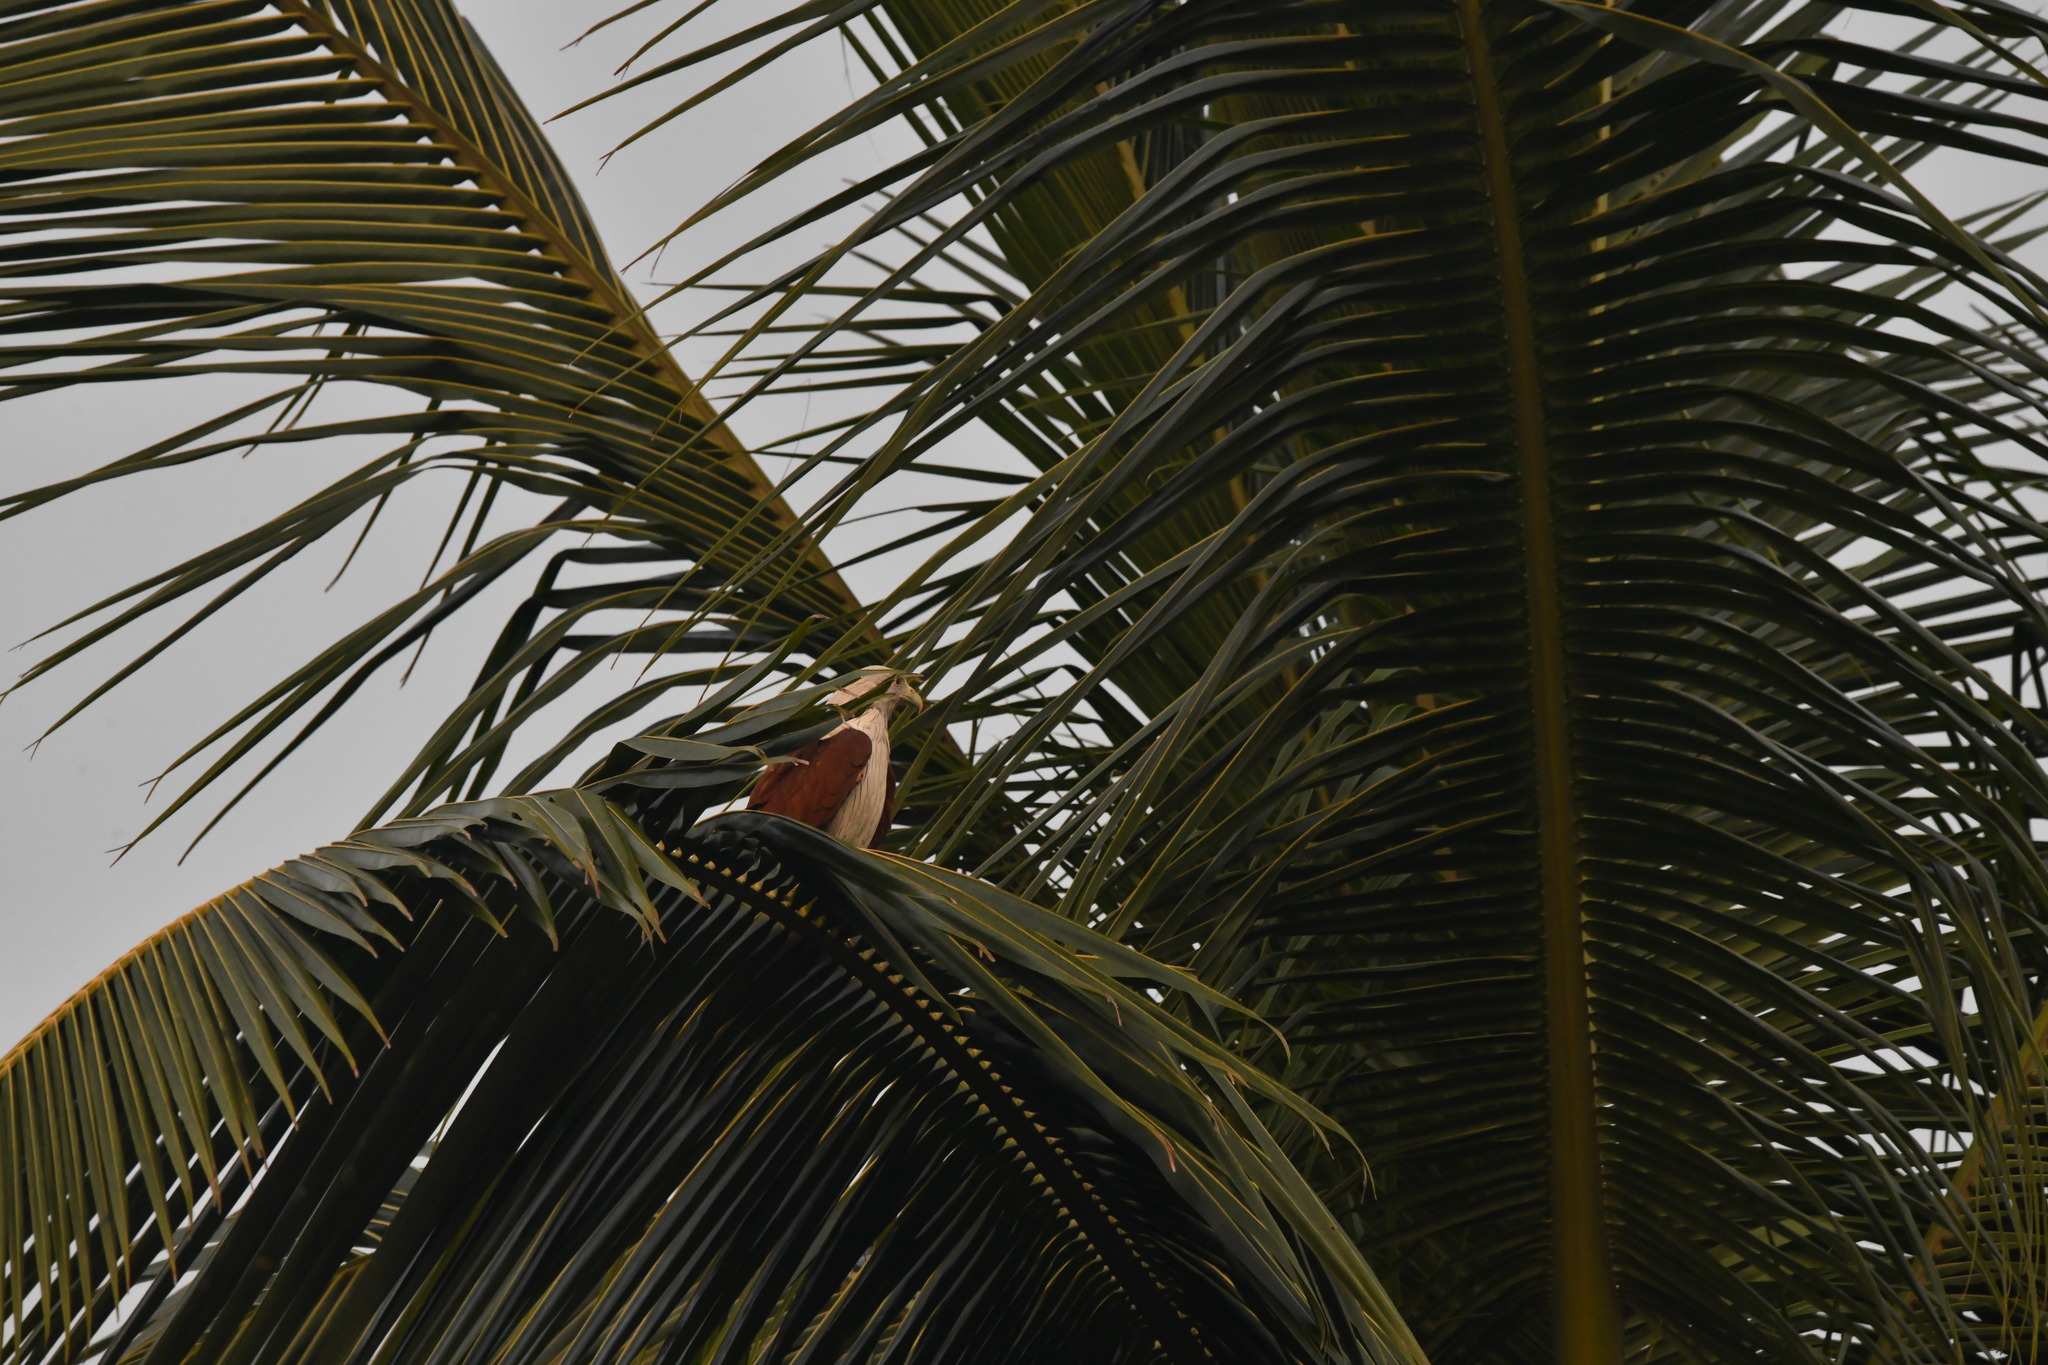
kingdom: Animalia
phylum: Chordata
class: Aves
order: Accipitriformes
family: Accipitridae
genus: Haliastur
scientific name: Haliastur indus
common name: Brahminy kite
